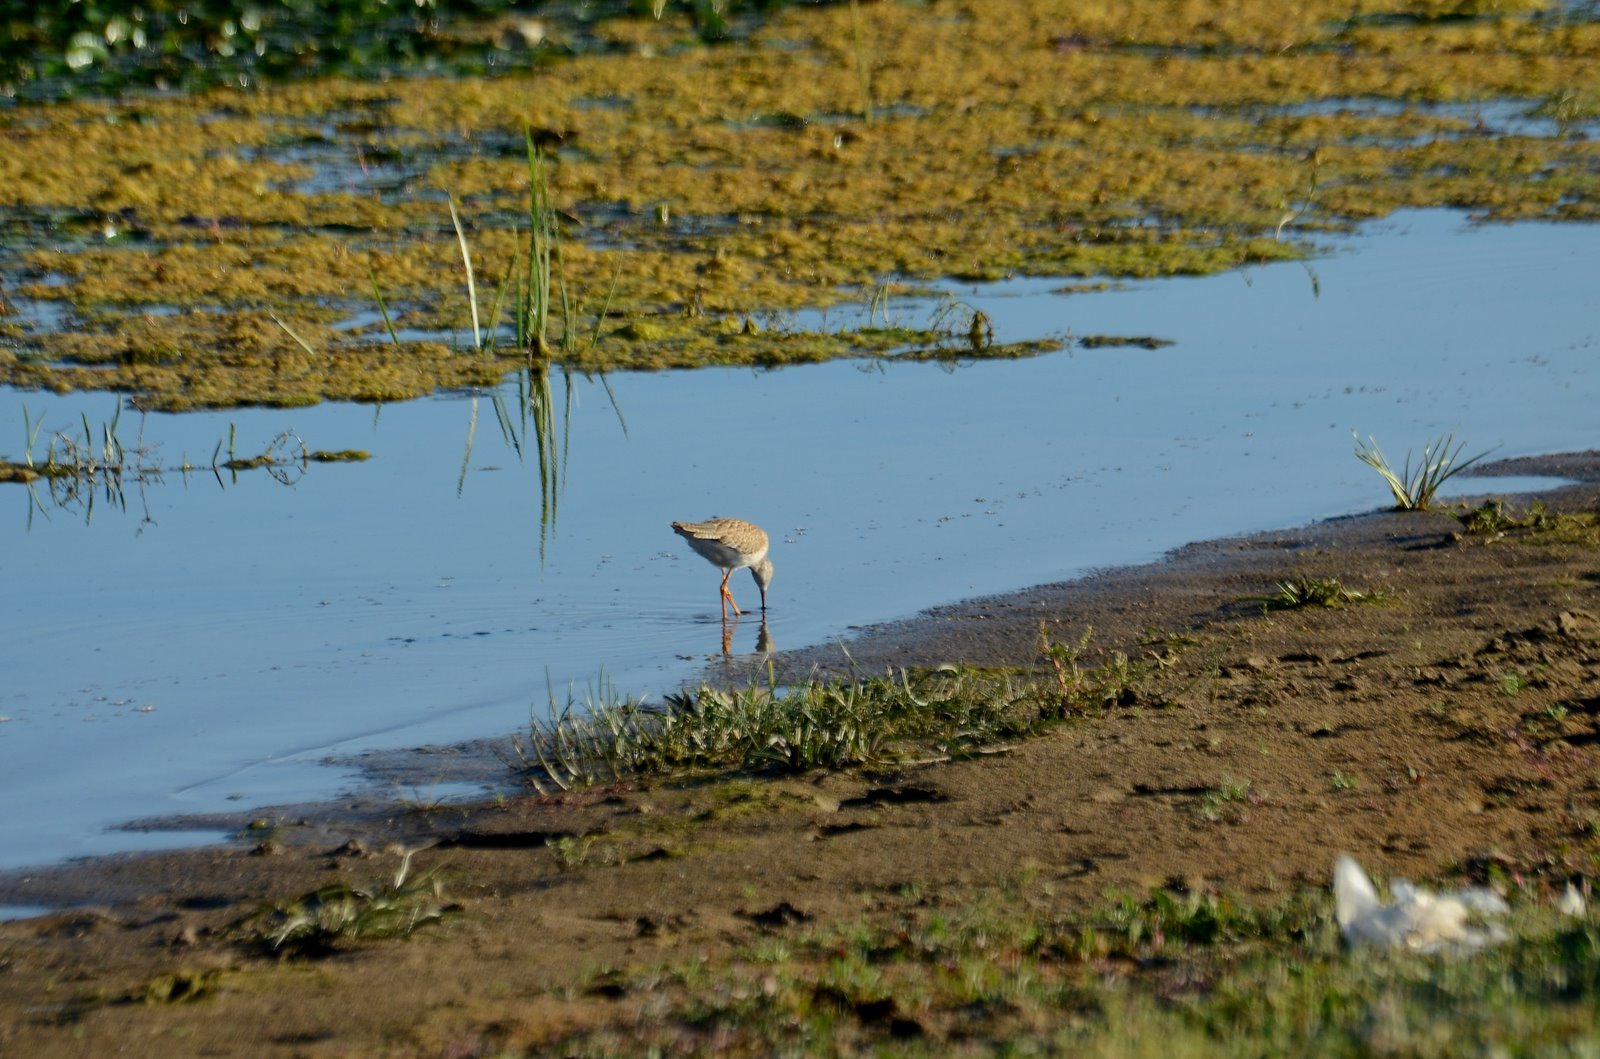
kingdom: Animalia
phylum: Chordata
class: Aves
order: Charadriiformes
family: Scolopacidae
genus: Tringa
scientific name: Tringa totanus
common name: Common redshank
